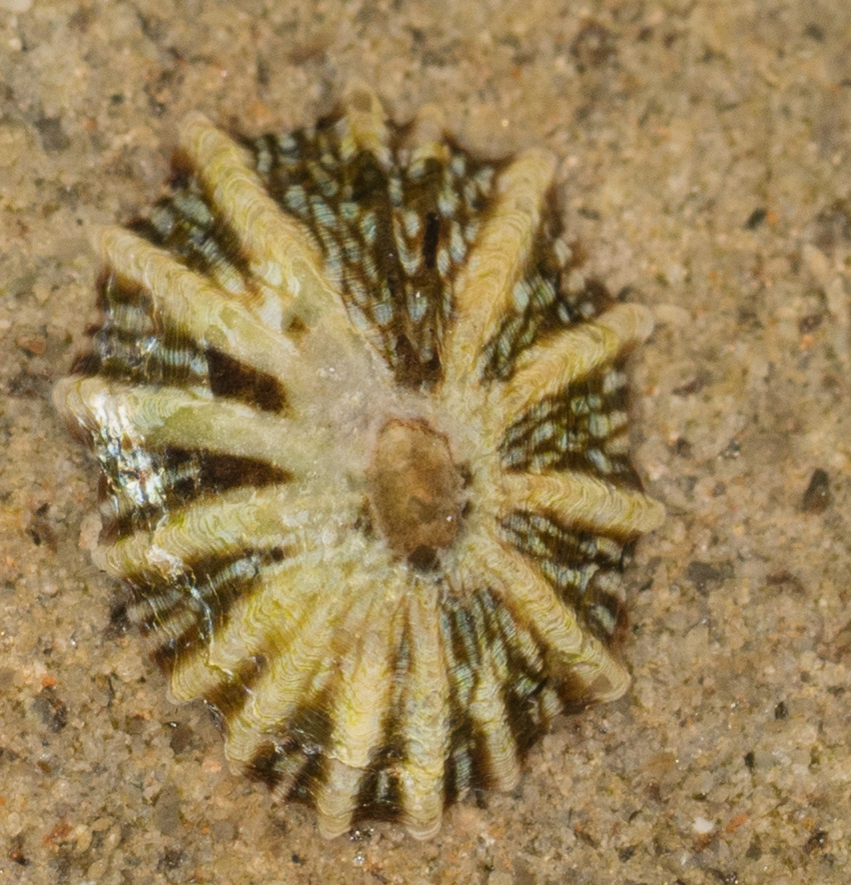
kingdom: Animalia
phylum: Mollusca
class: Gastropoda
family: Lottiidae
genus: Lottia
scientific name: Lottia scabra
